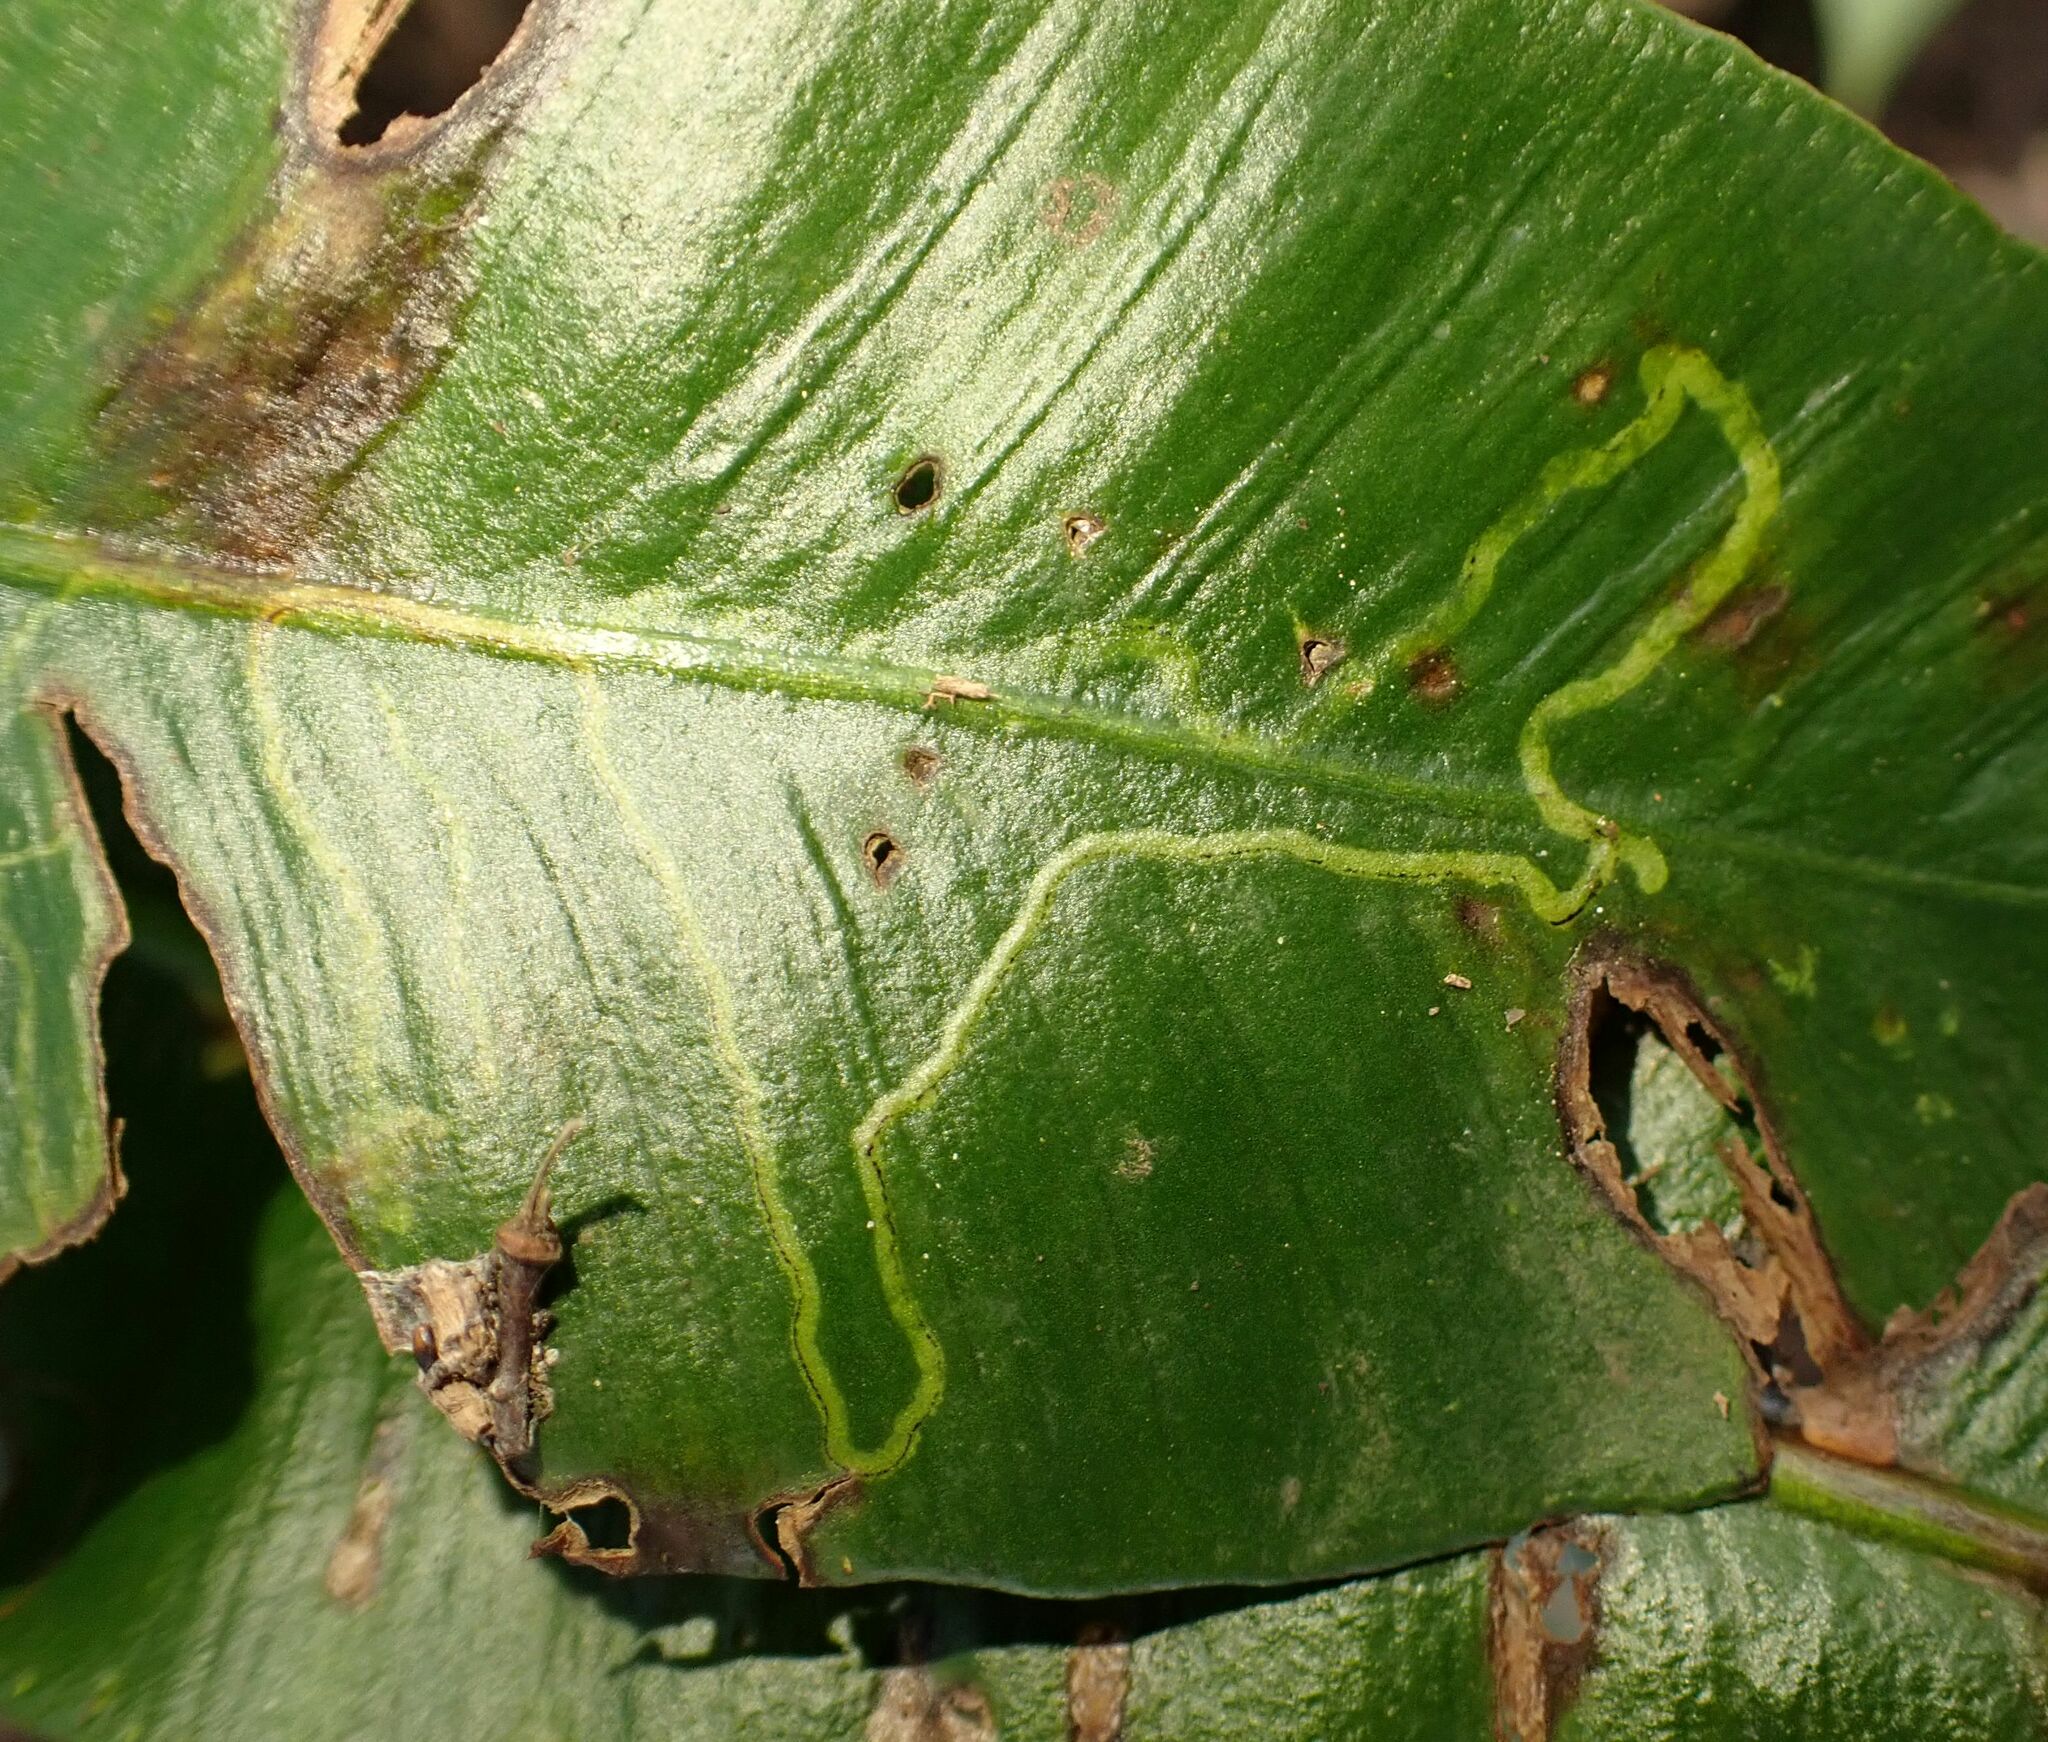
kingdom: Animalia
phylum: Arthropoda
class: Insecta
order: Diptera
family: Agromyzidae
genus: Phytomyza
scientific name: Phytomyza scolopendri
